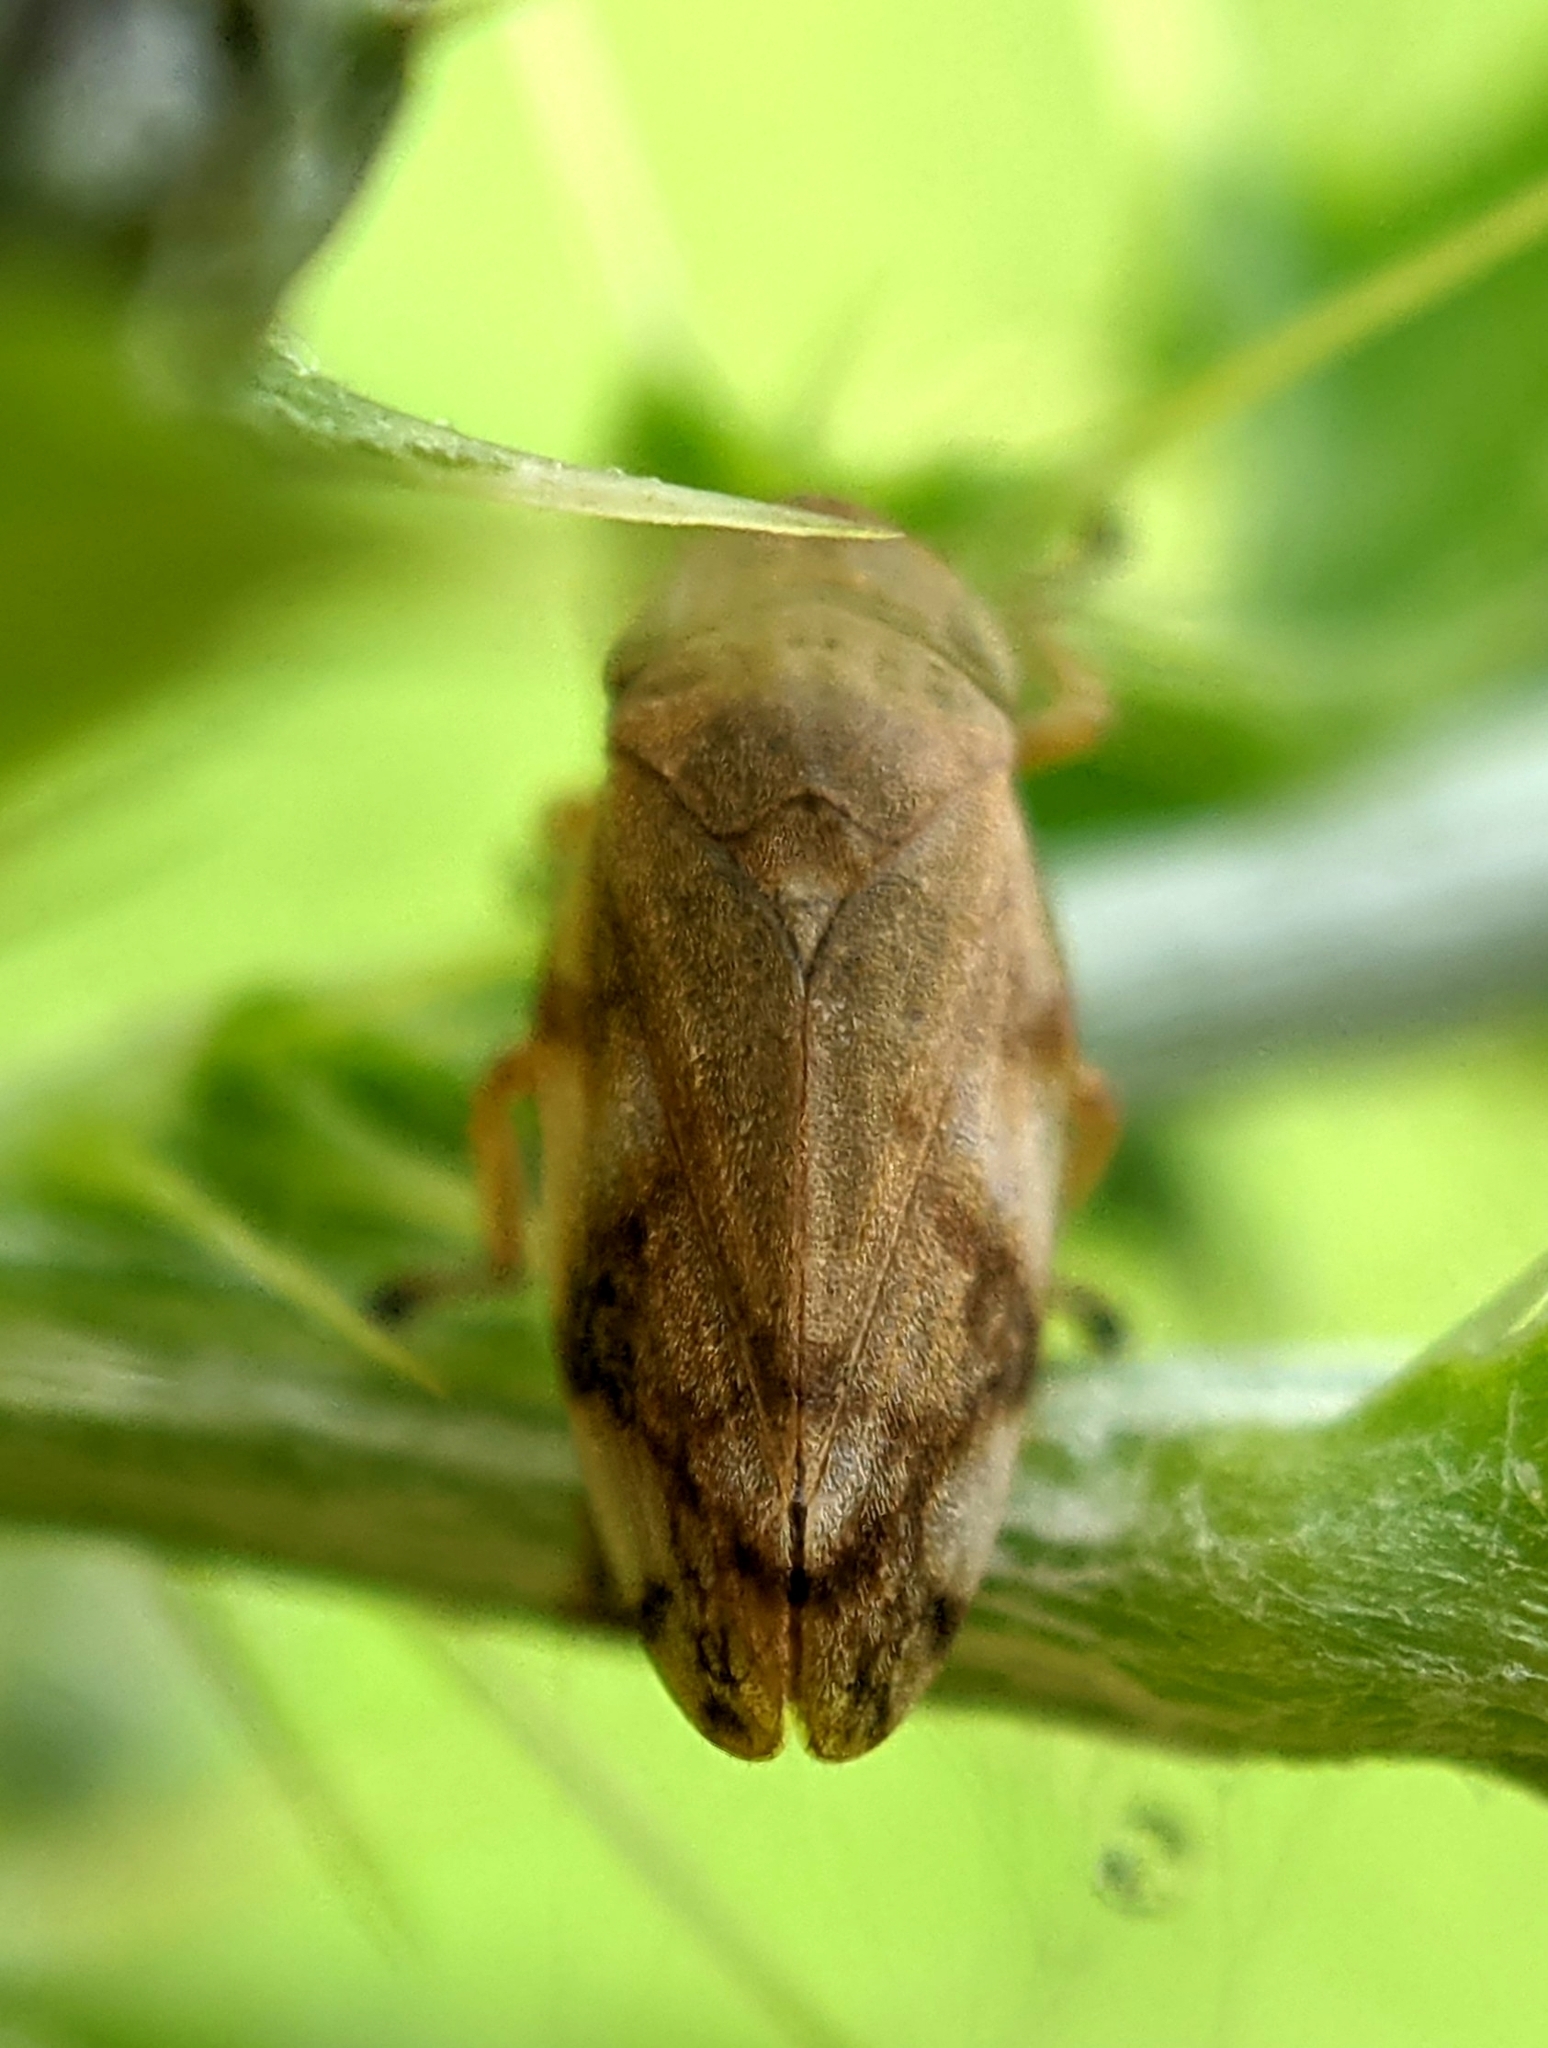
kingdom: Animalia
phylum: Arthropoda
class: Insecta
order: Hemiptera
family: Aphrophoridae
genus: Philaenus
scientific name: Philaenus spumarius
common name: Meadow spittlebug
